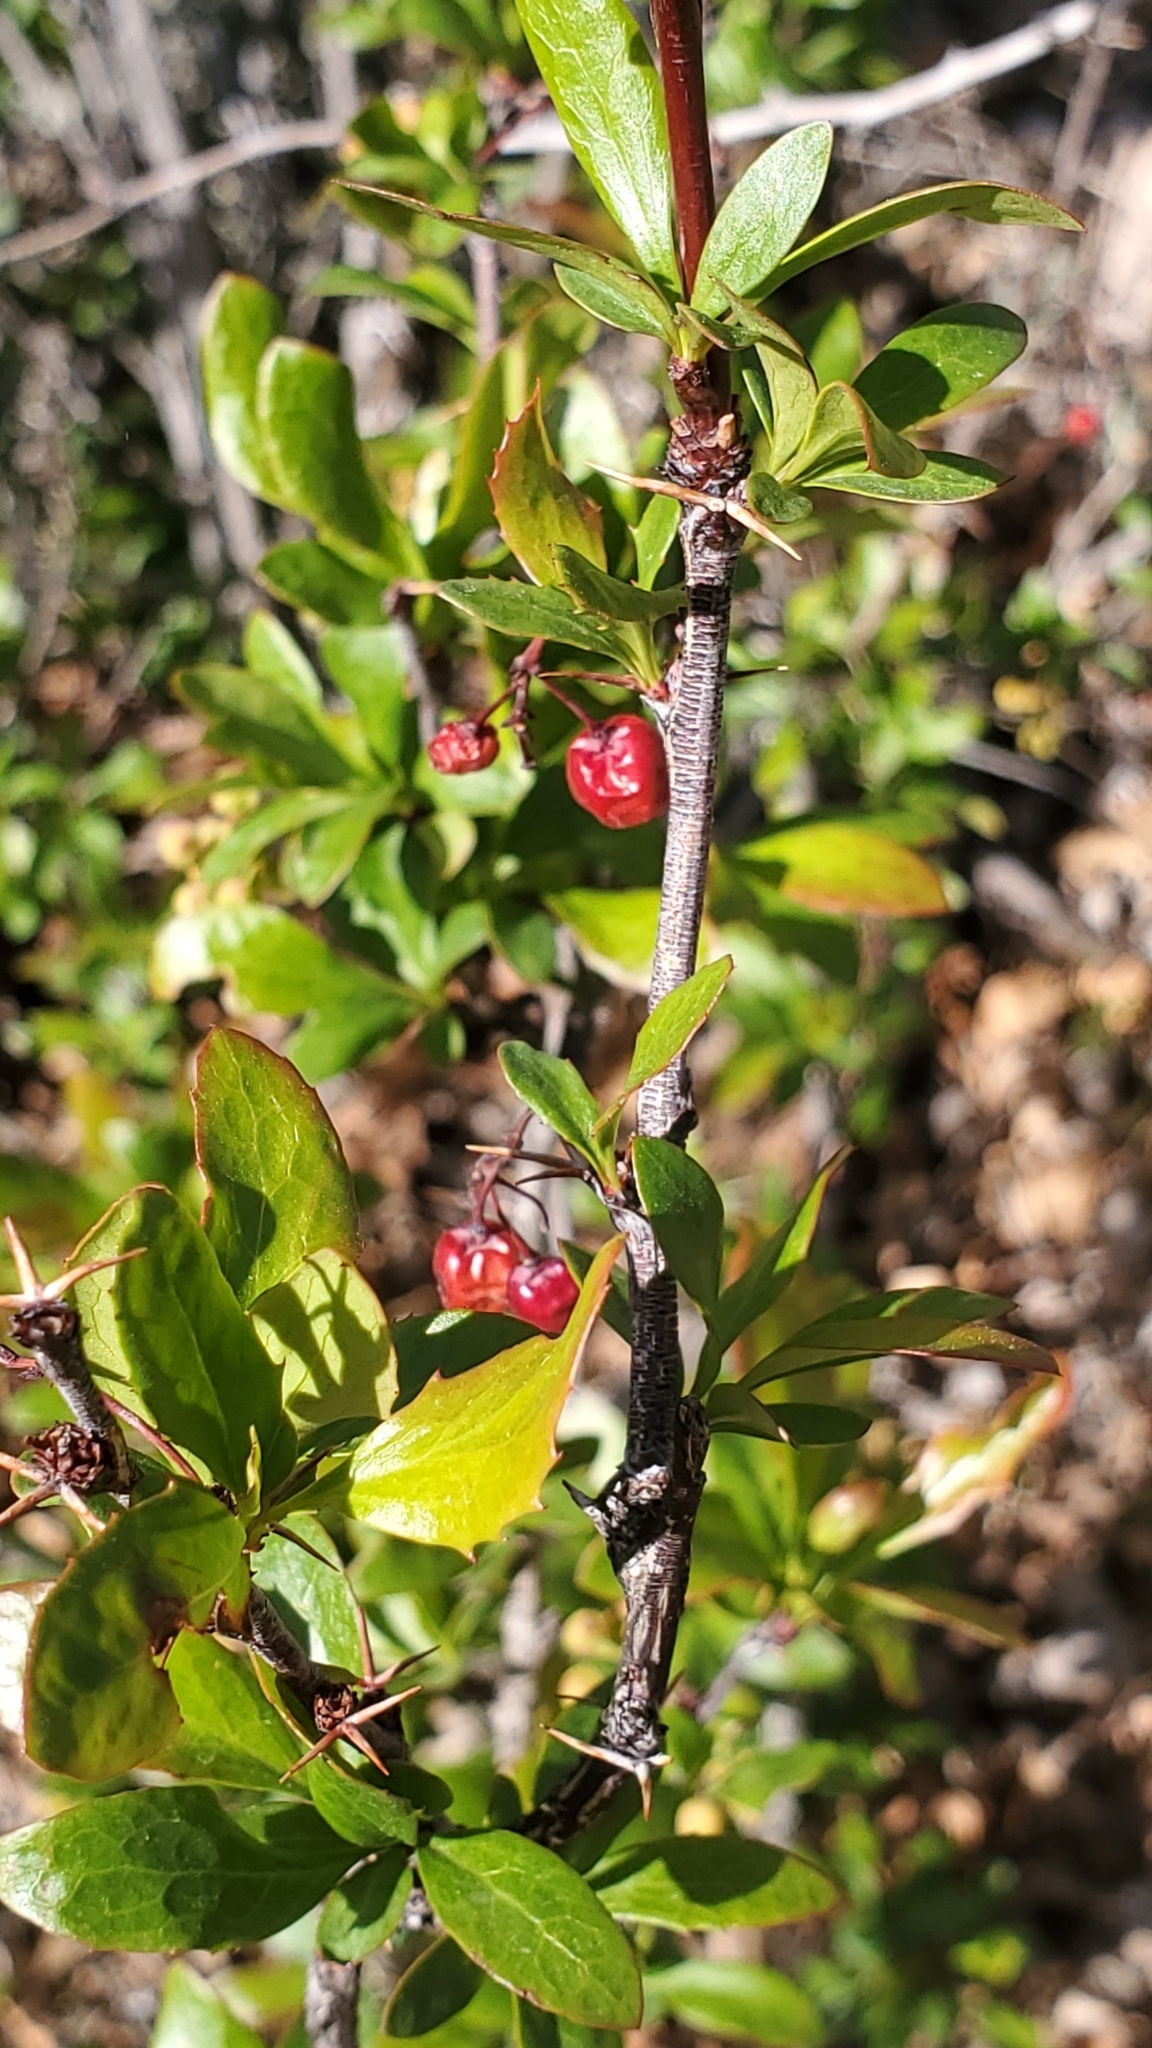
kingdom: Plantae
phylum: Tracheophyta
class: Magnoliopsida
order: Ranunculales
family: Berberidaceae
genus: Berberis
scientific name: Berberis fendleri
